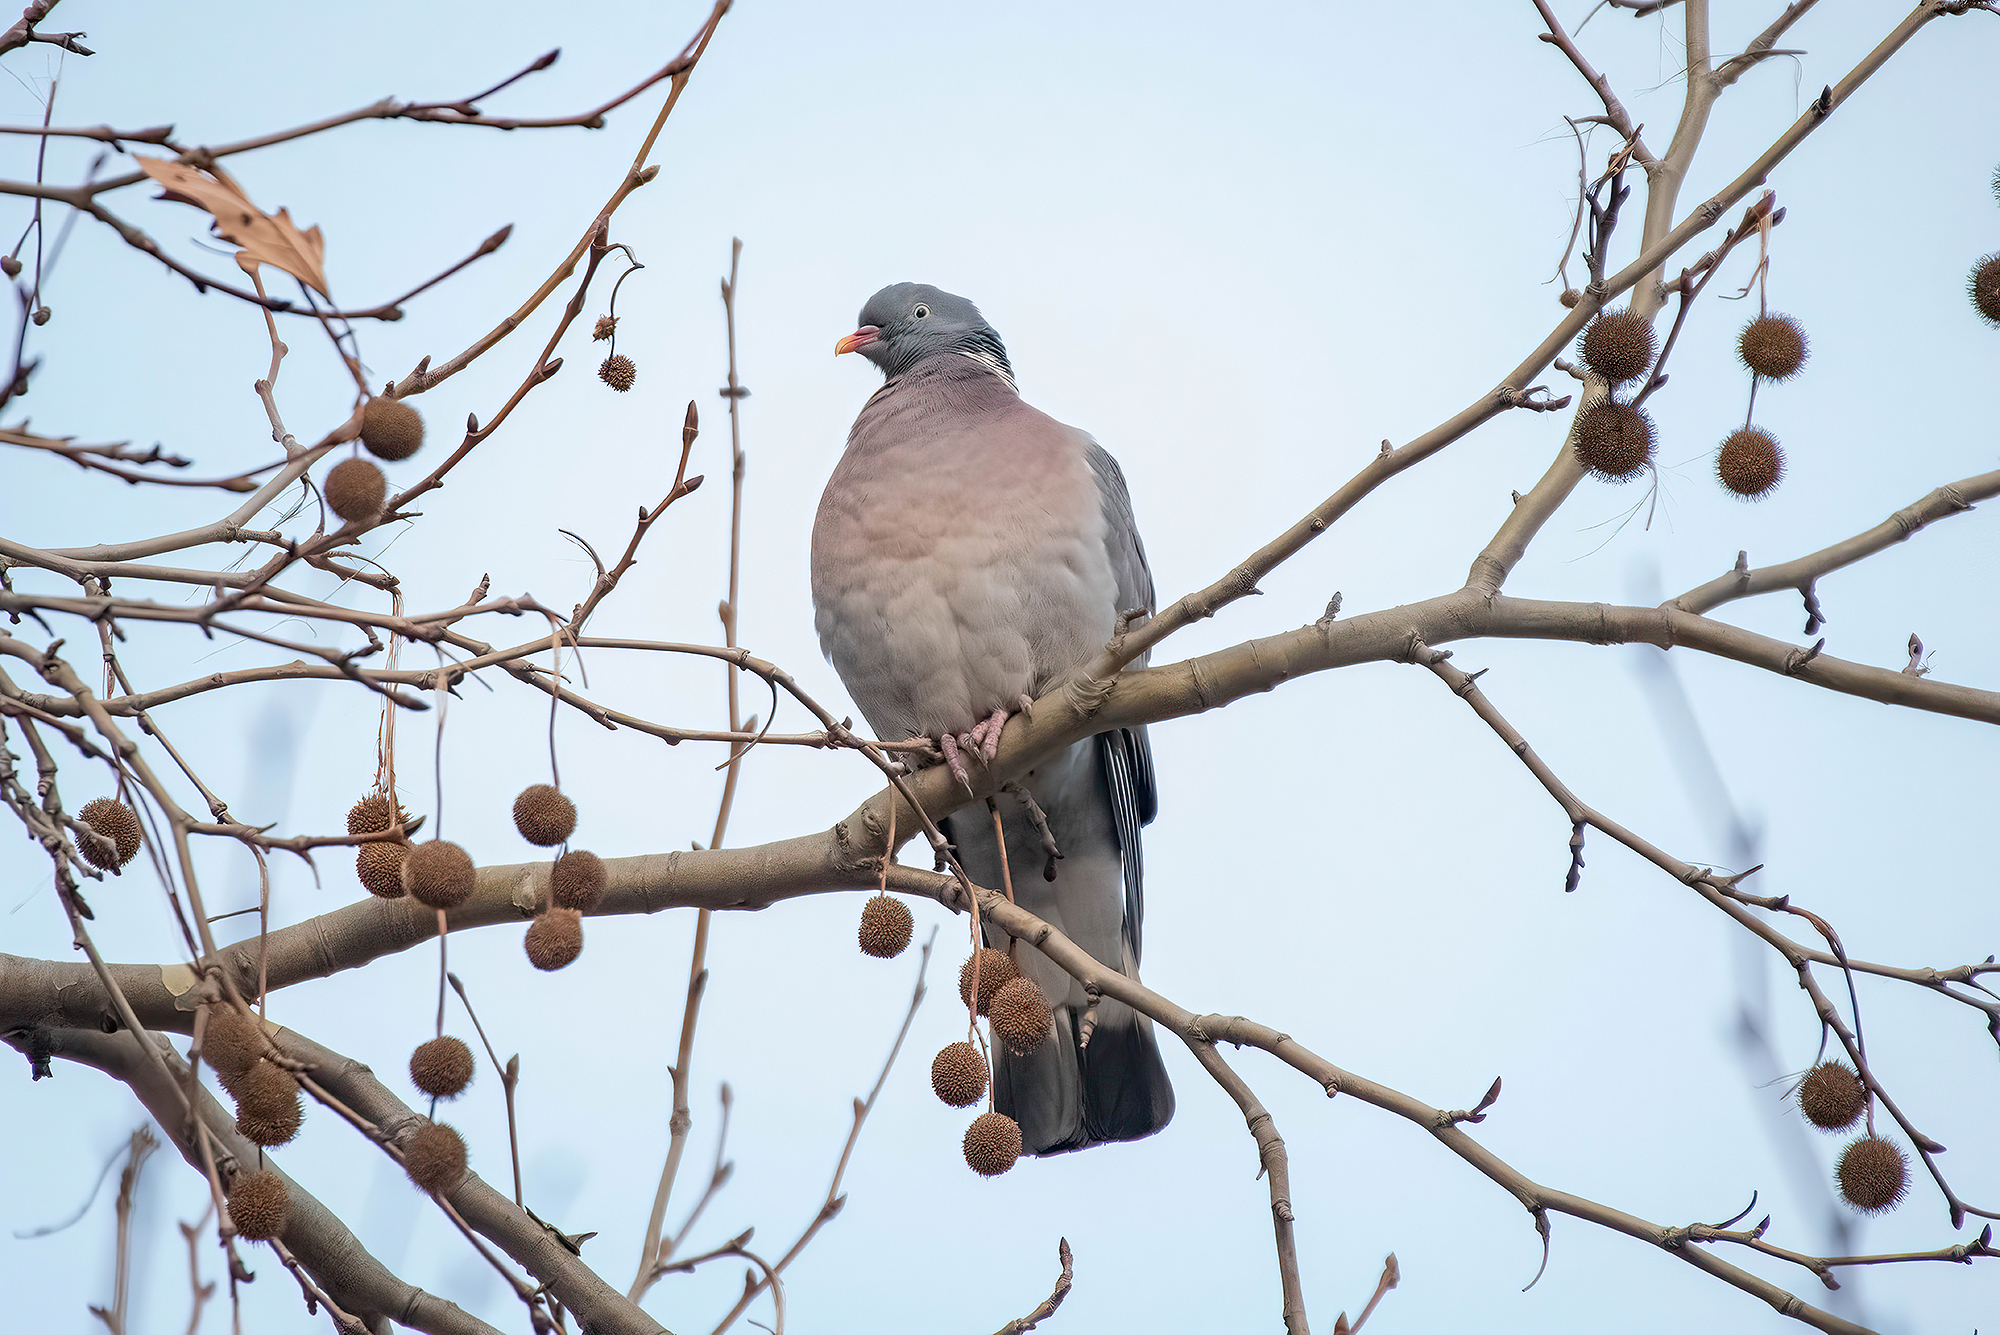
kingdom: Animalia
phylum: Chordata
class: Aves
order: Columbiformes
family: Columbidae
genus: Columba
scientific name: Columba palumbus
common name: Common wood pigeon
